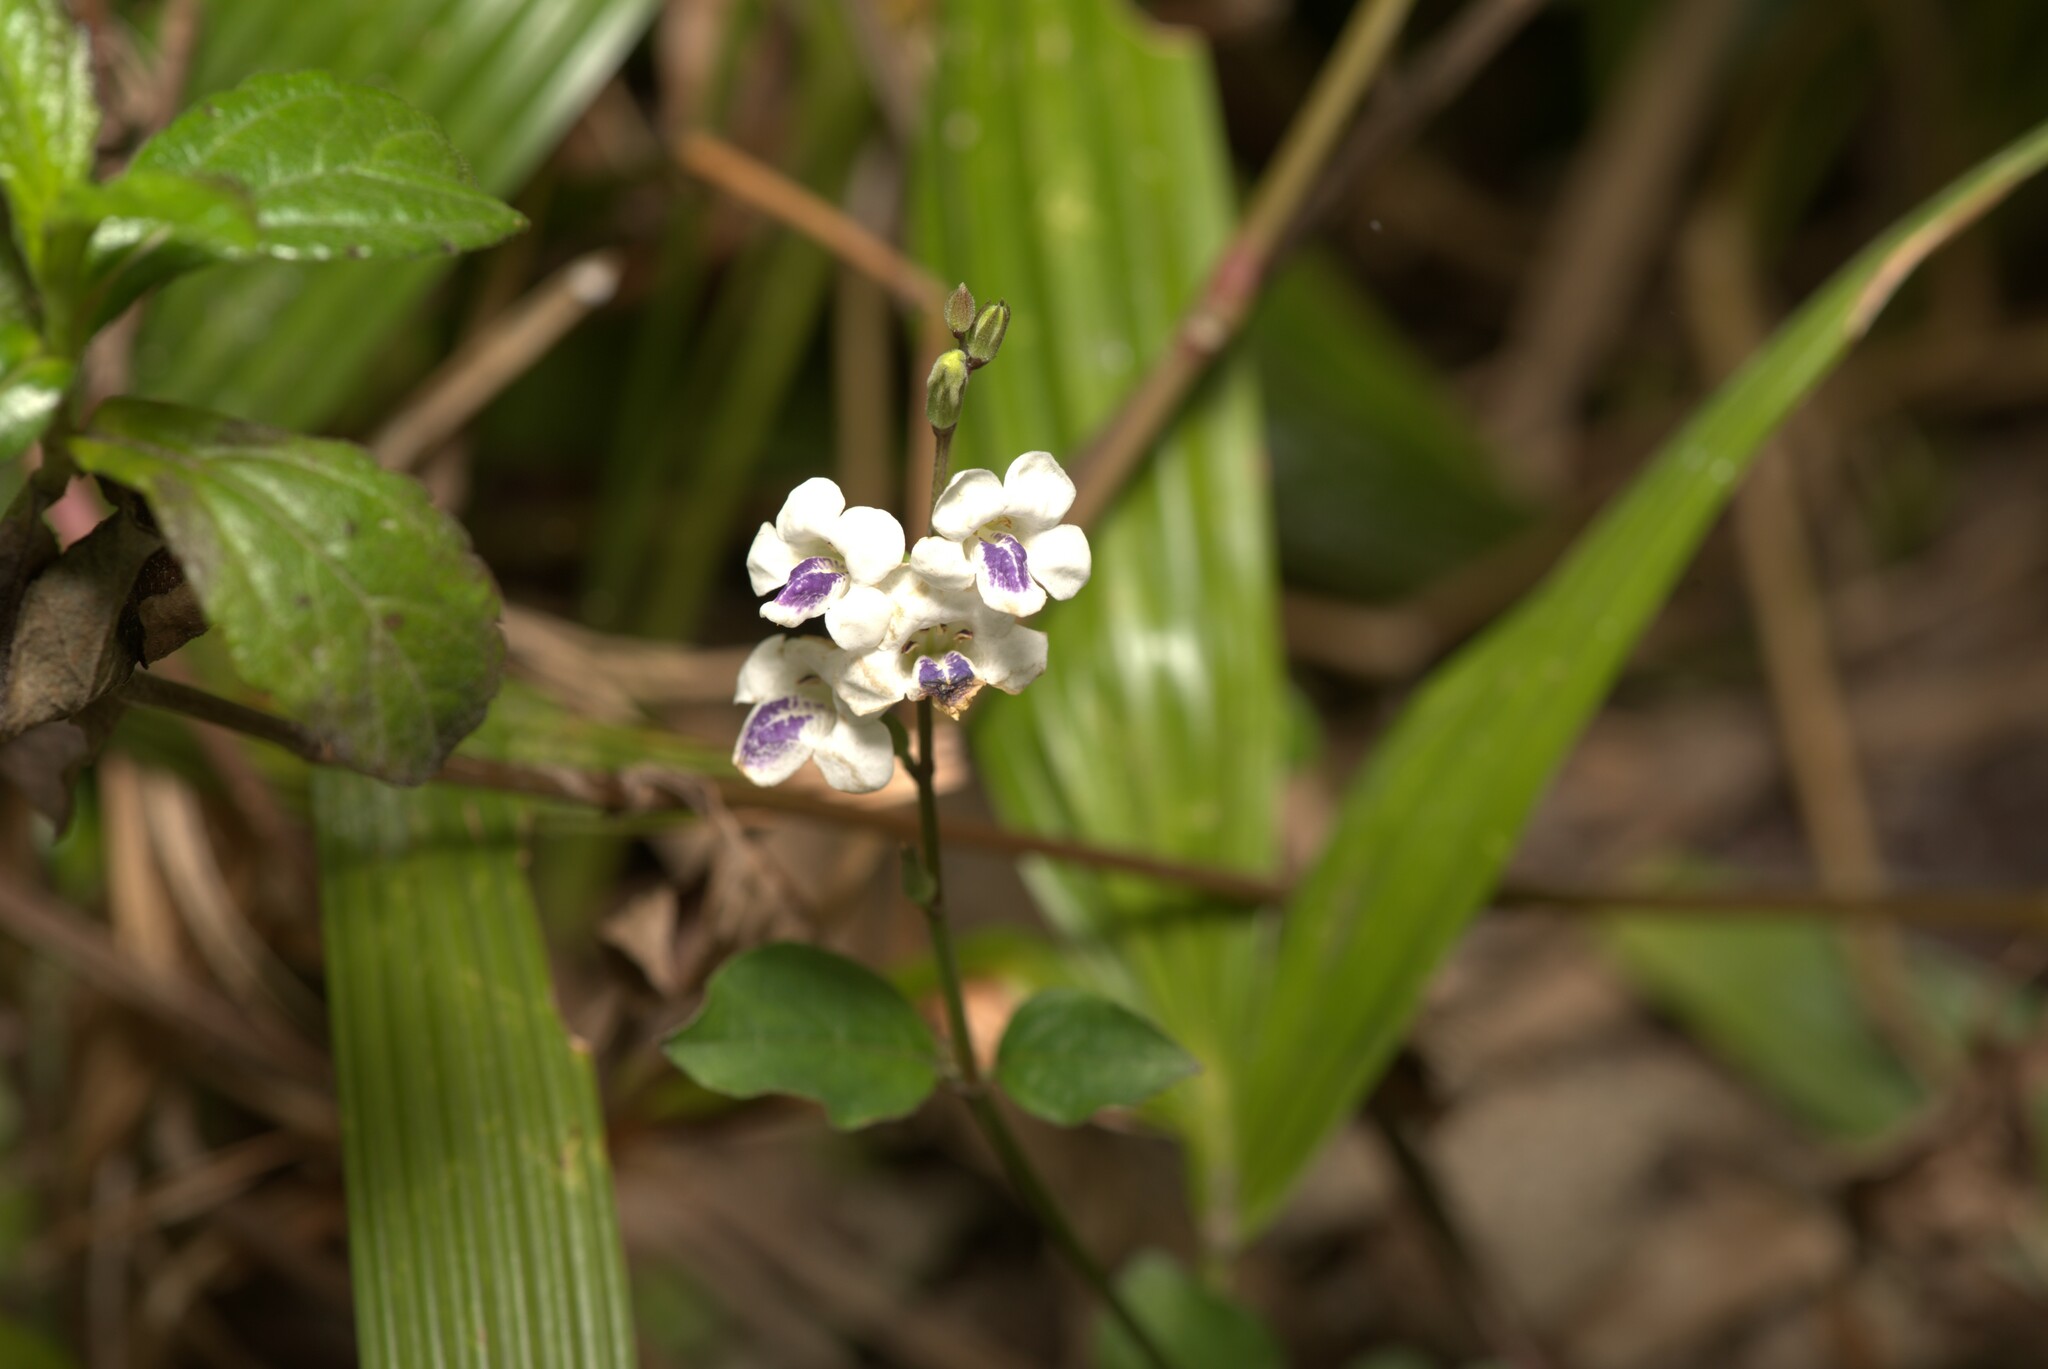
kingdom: Plantae
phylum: Tracheophyta
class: Magnoliopsida
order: Lamiales
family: Acanthaceae
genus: Asystasia
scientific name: Asystasia intrusa
